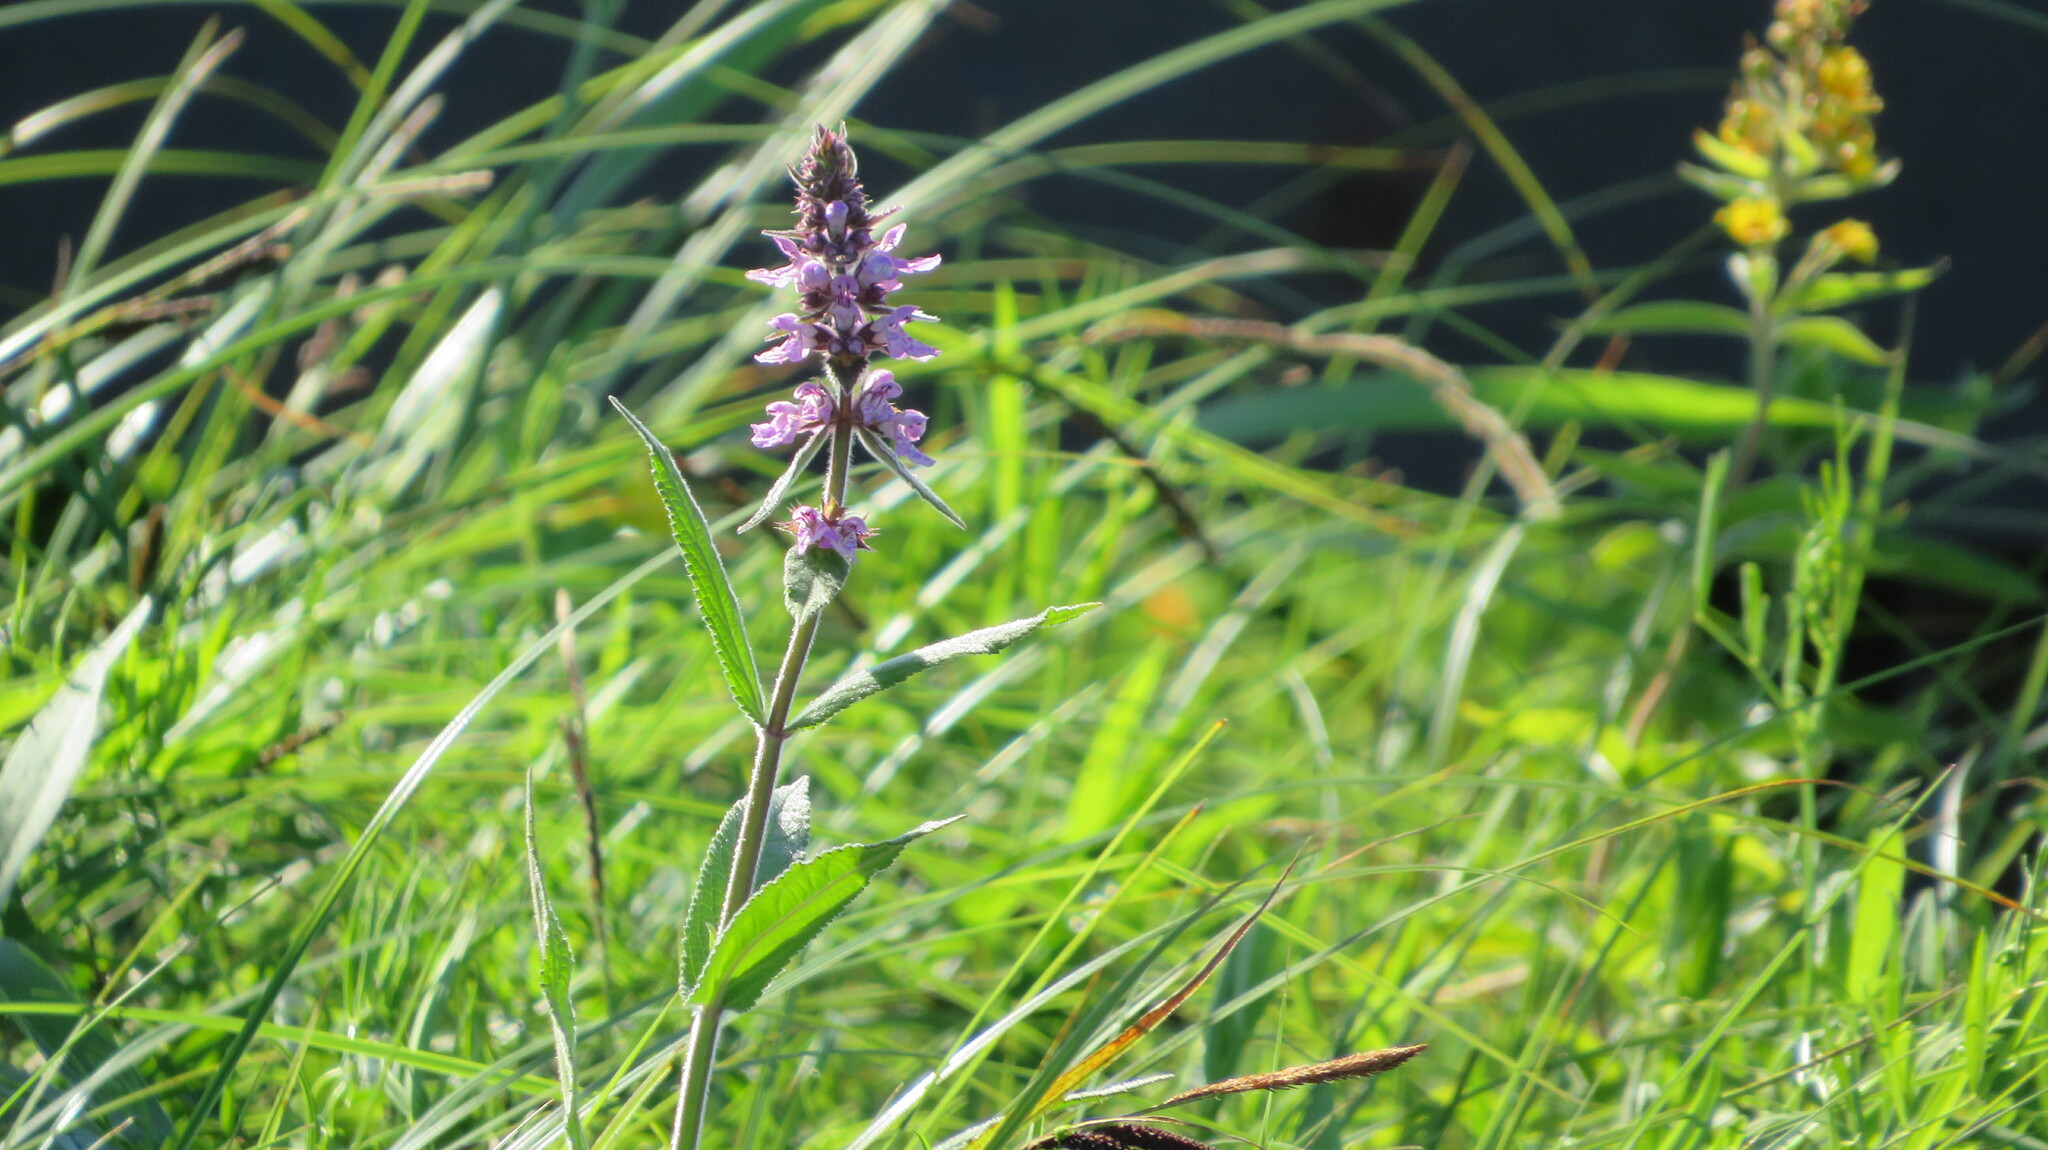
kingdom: Plantae
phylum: Tracheophyta
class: Magnoliopsida
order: Lamiales
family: Lamiaceae
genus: Stachys
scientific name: Stachys palustris
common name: Marsh woundwort
